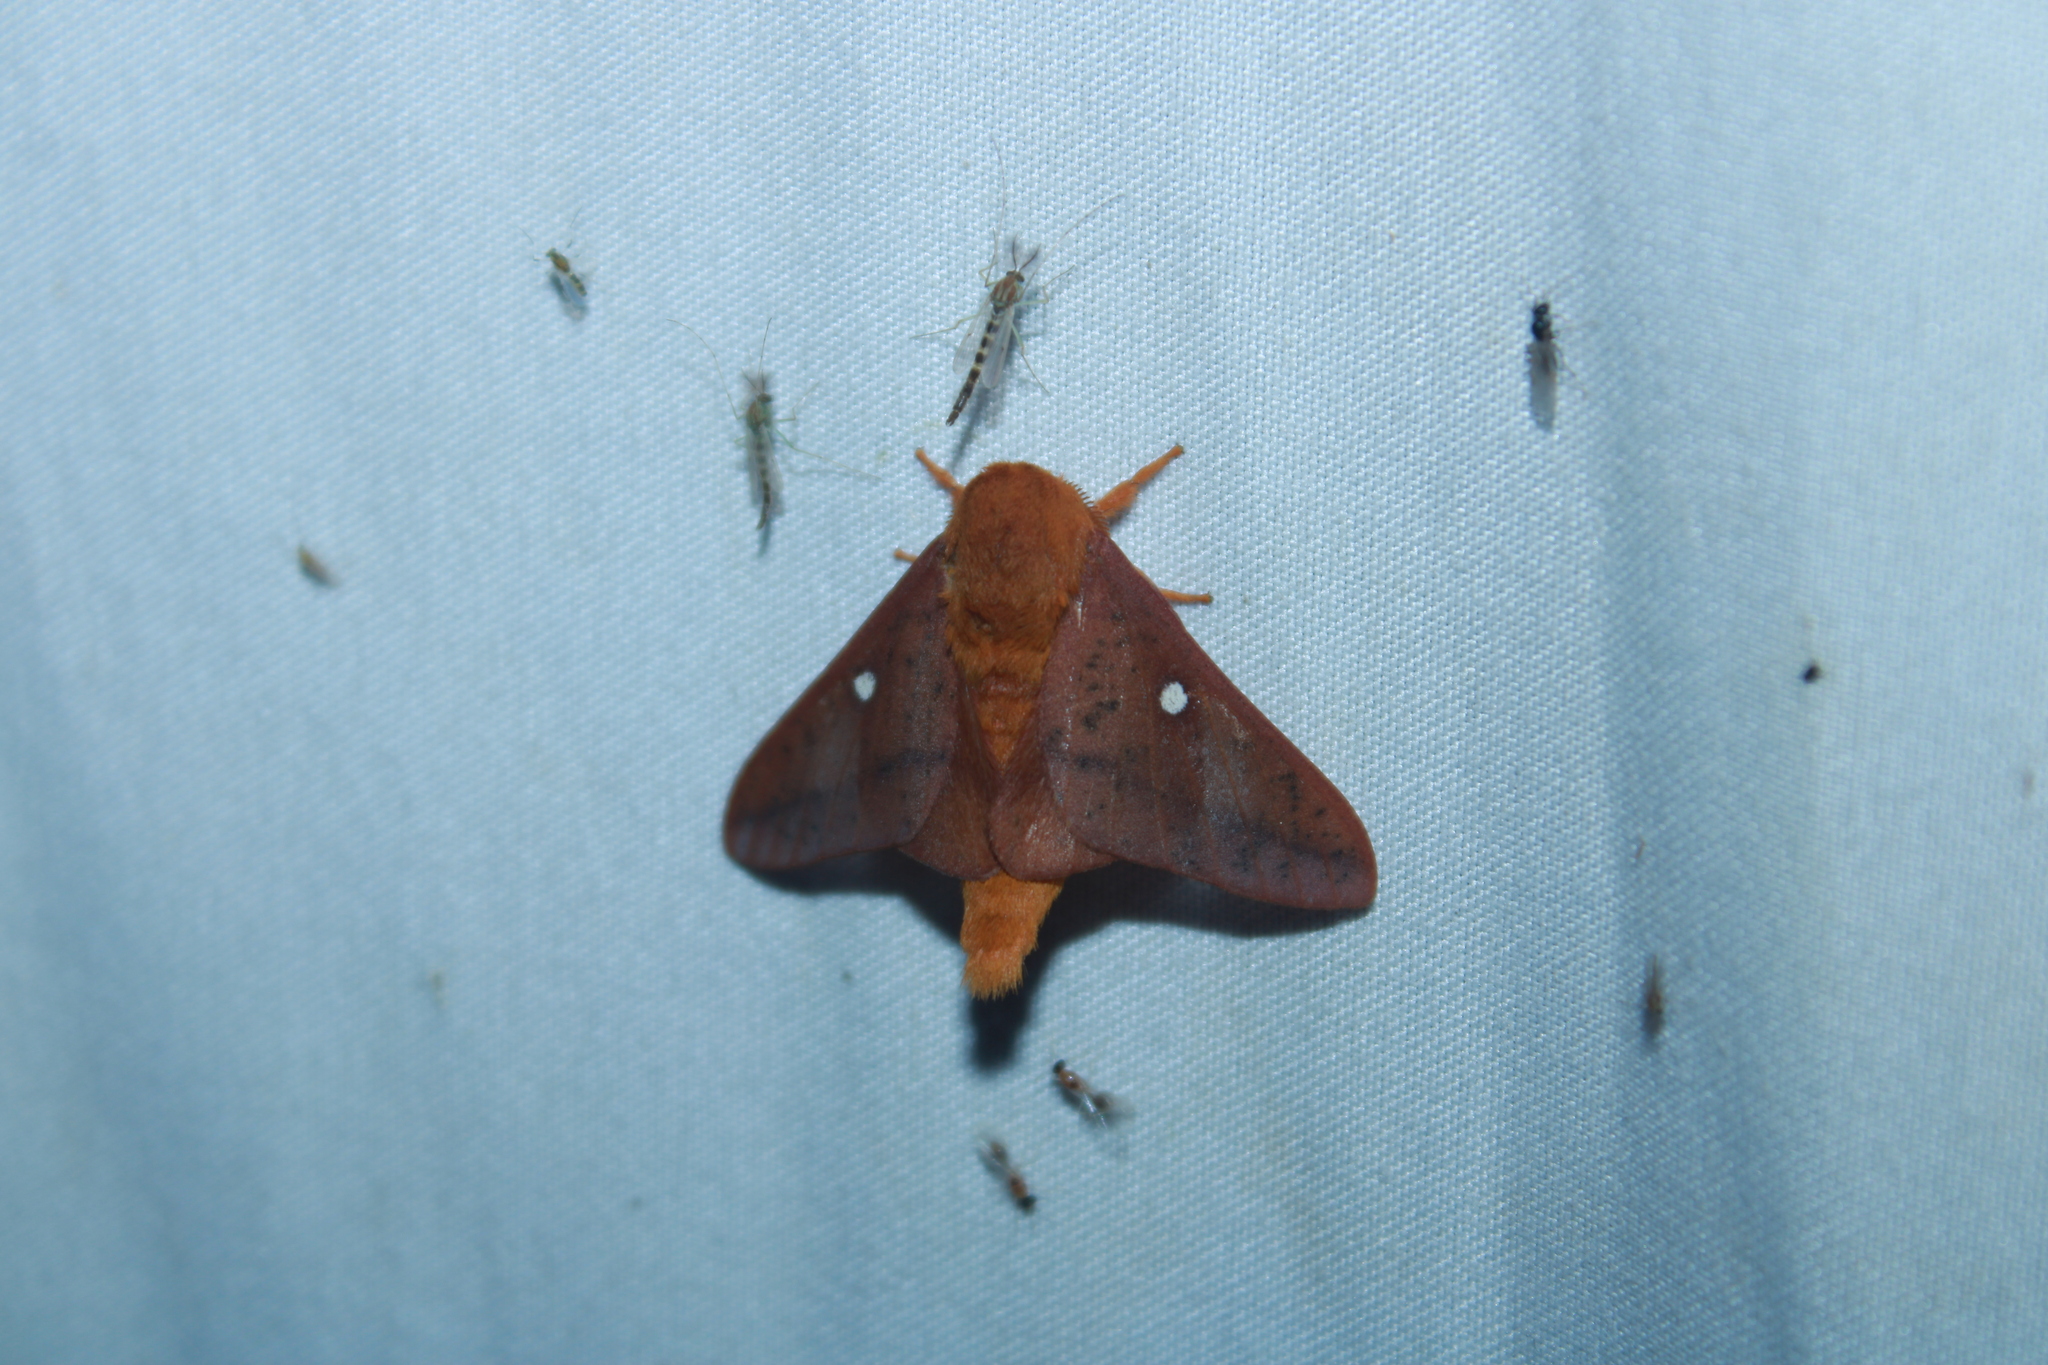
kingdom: Animalia
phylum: Arthropoda
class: Insecta
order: Lepidoptera
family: Saturniidae
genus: Anisota
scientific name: Anisota senatoria
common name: Orange-striped oakworm moth
